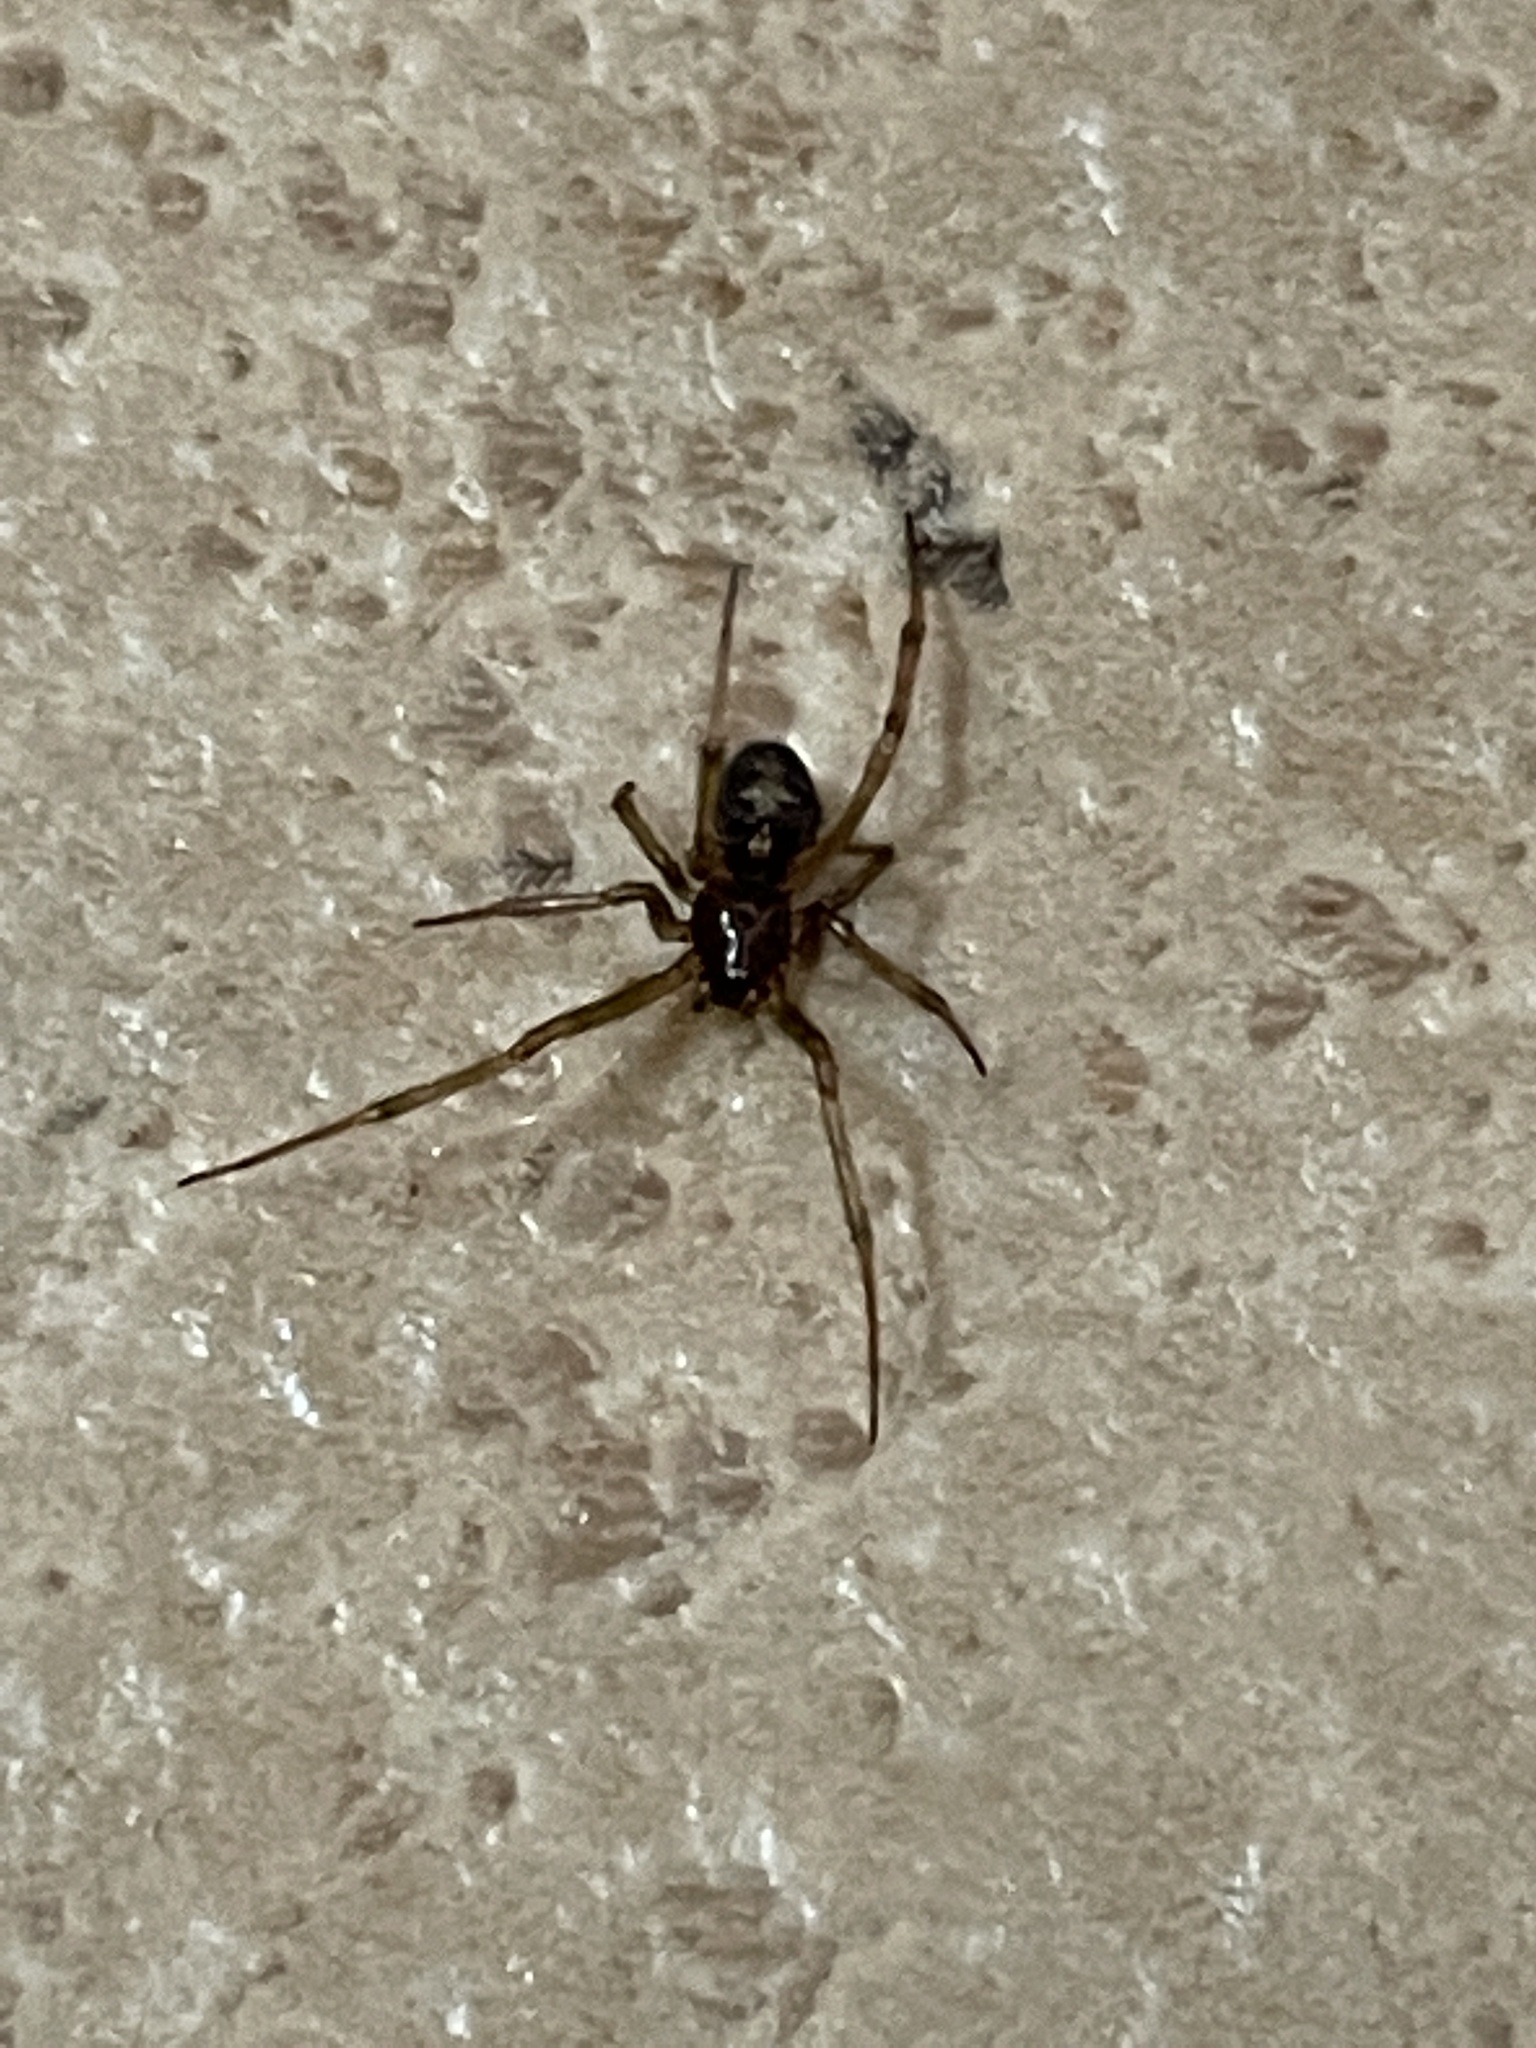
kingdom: Animalia
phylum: Arthropoda
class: Arachnida
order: Araneae
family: Theridiidae
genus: Steatoda
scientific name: Steatoda triangulosa
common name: Triangulate bud spider
